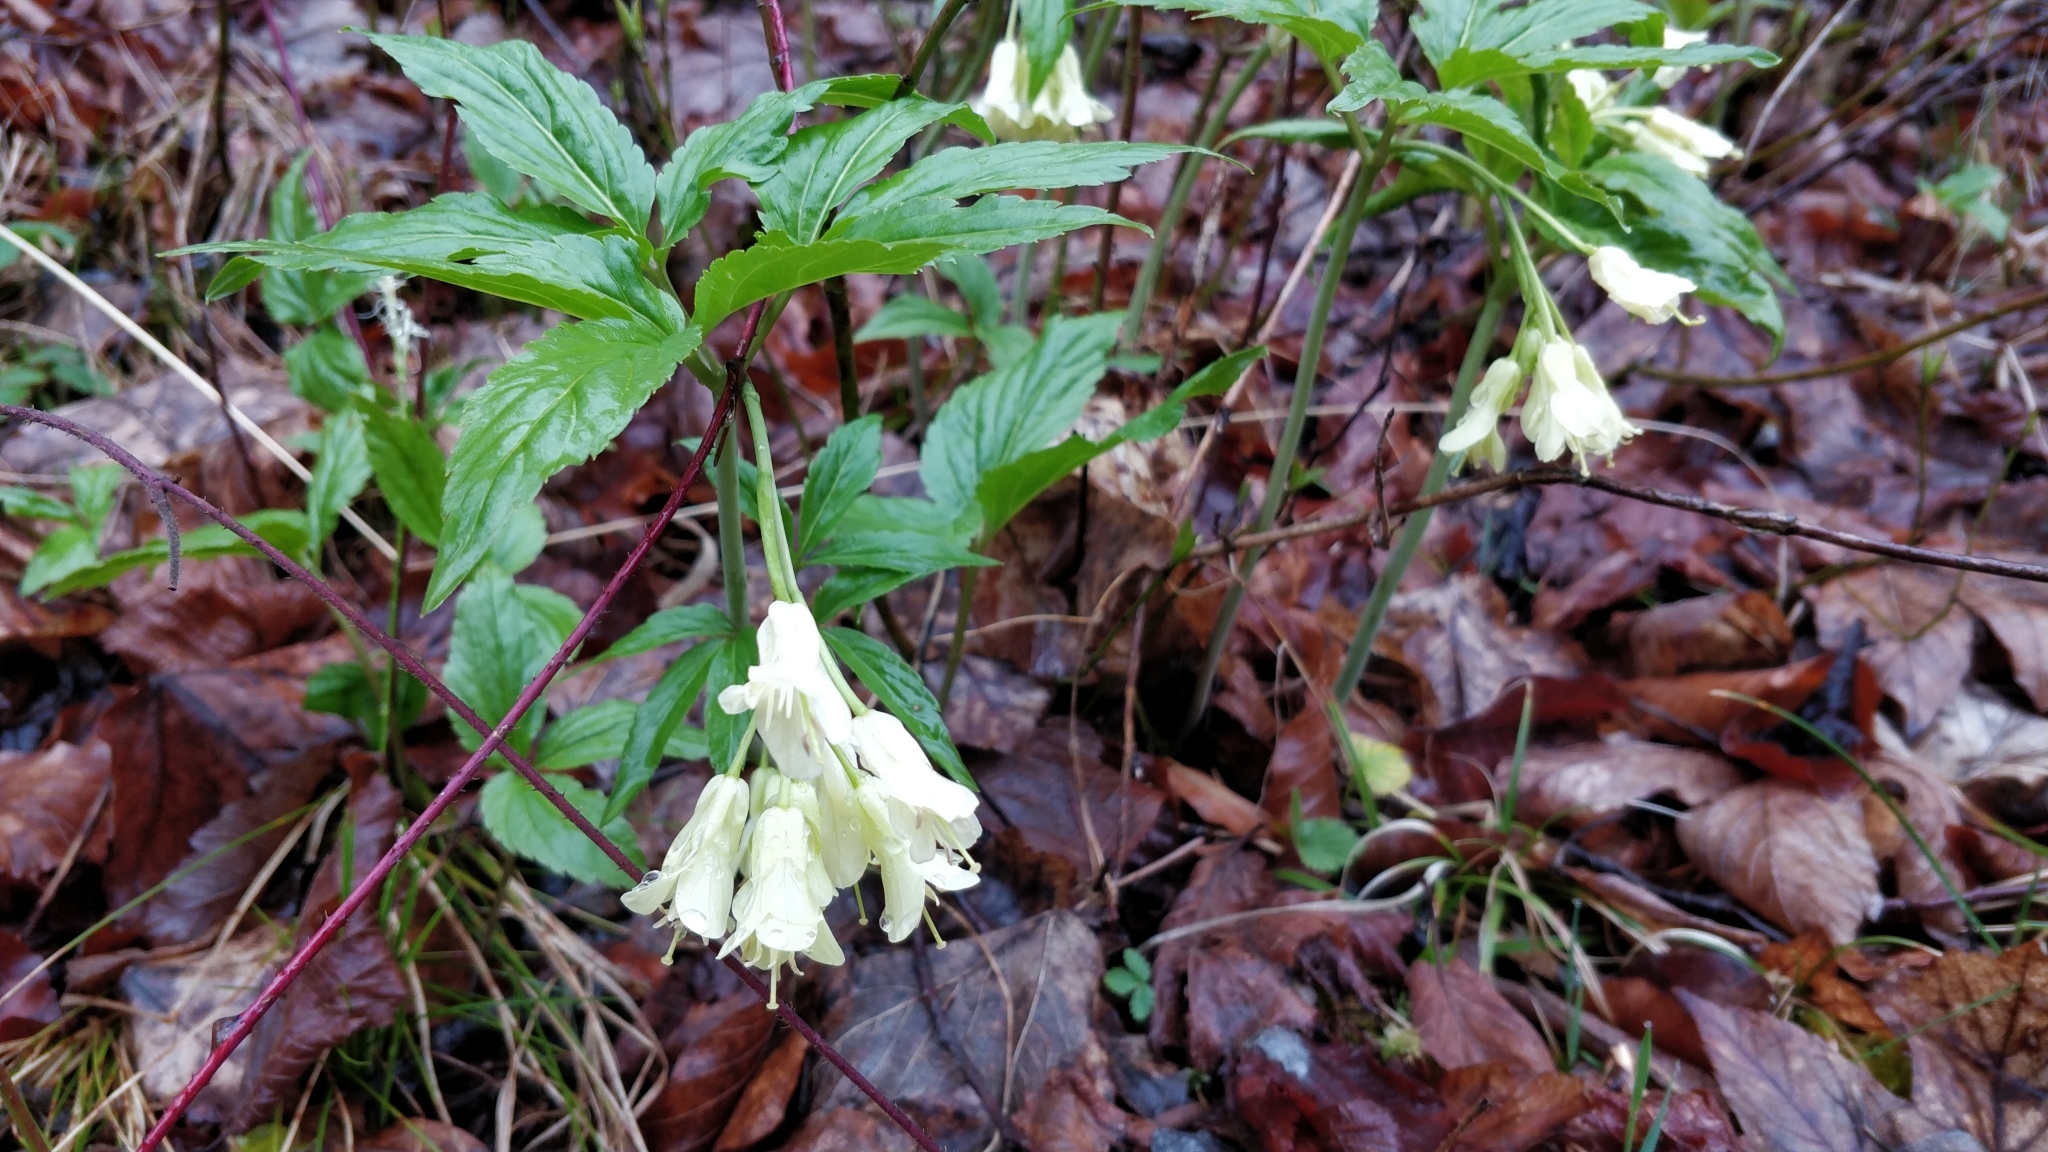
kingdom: Plantae
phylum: Tracheophyta
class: Magnoliopsida
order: Brassicales
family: Brassicaceae
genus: Cardamine
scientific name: Cardamine enneaphyllos
